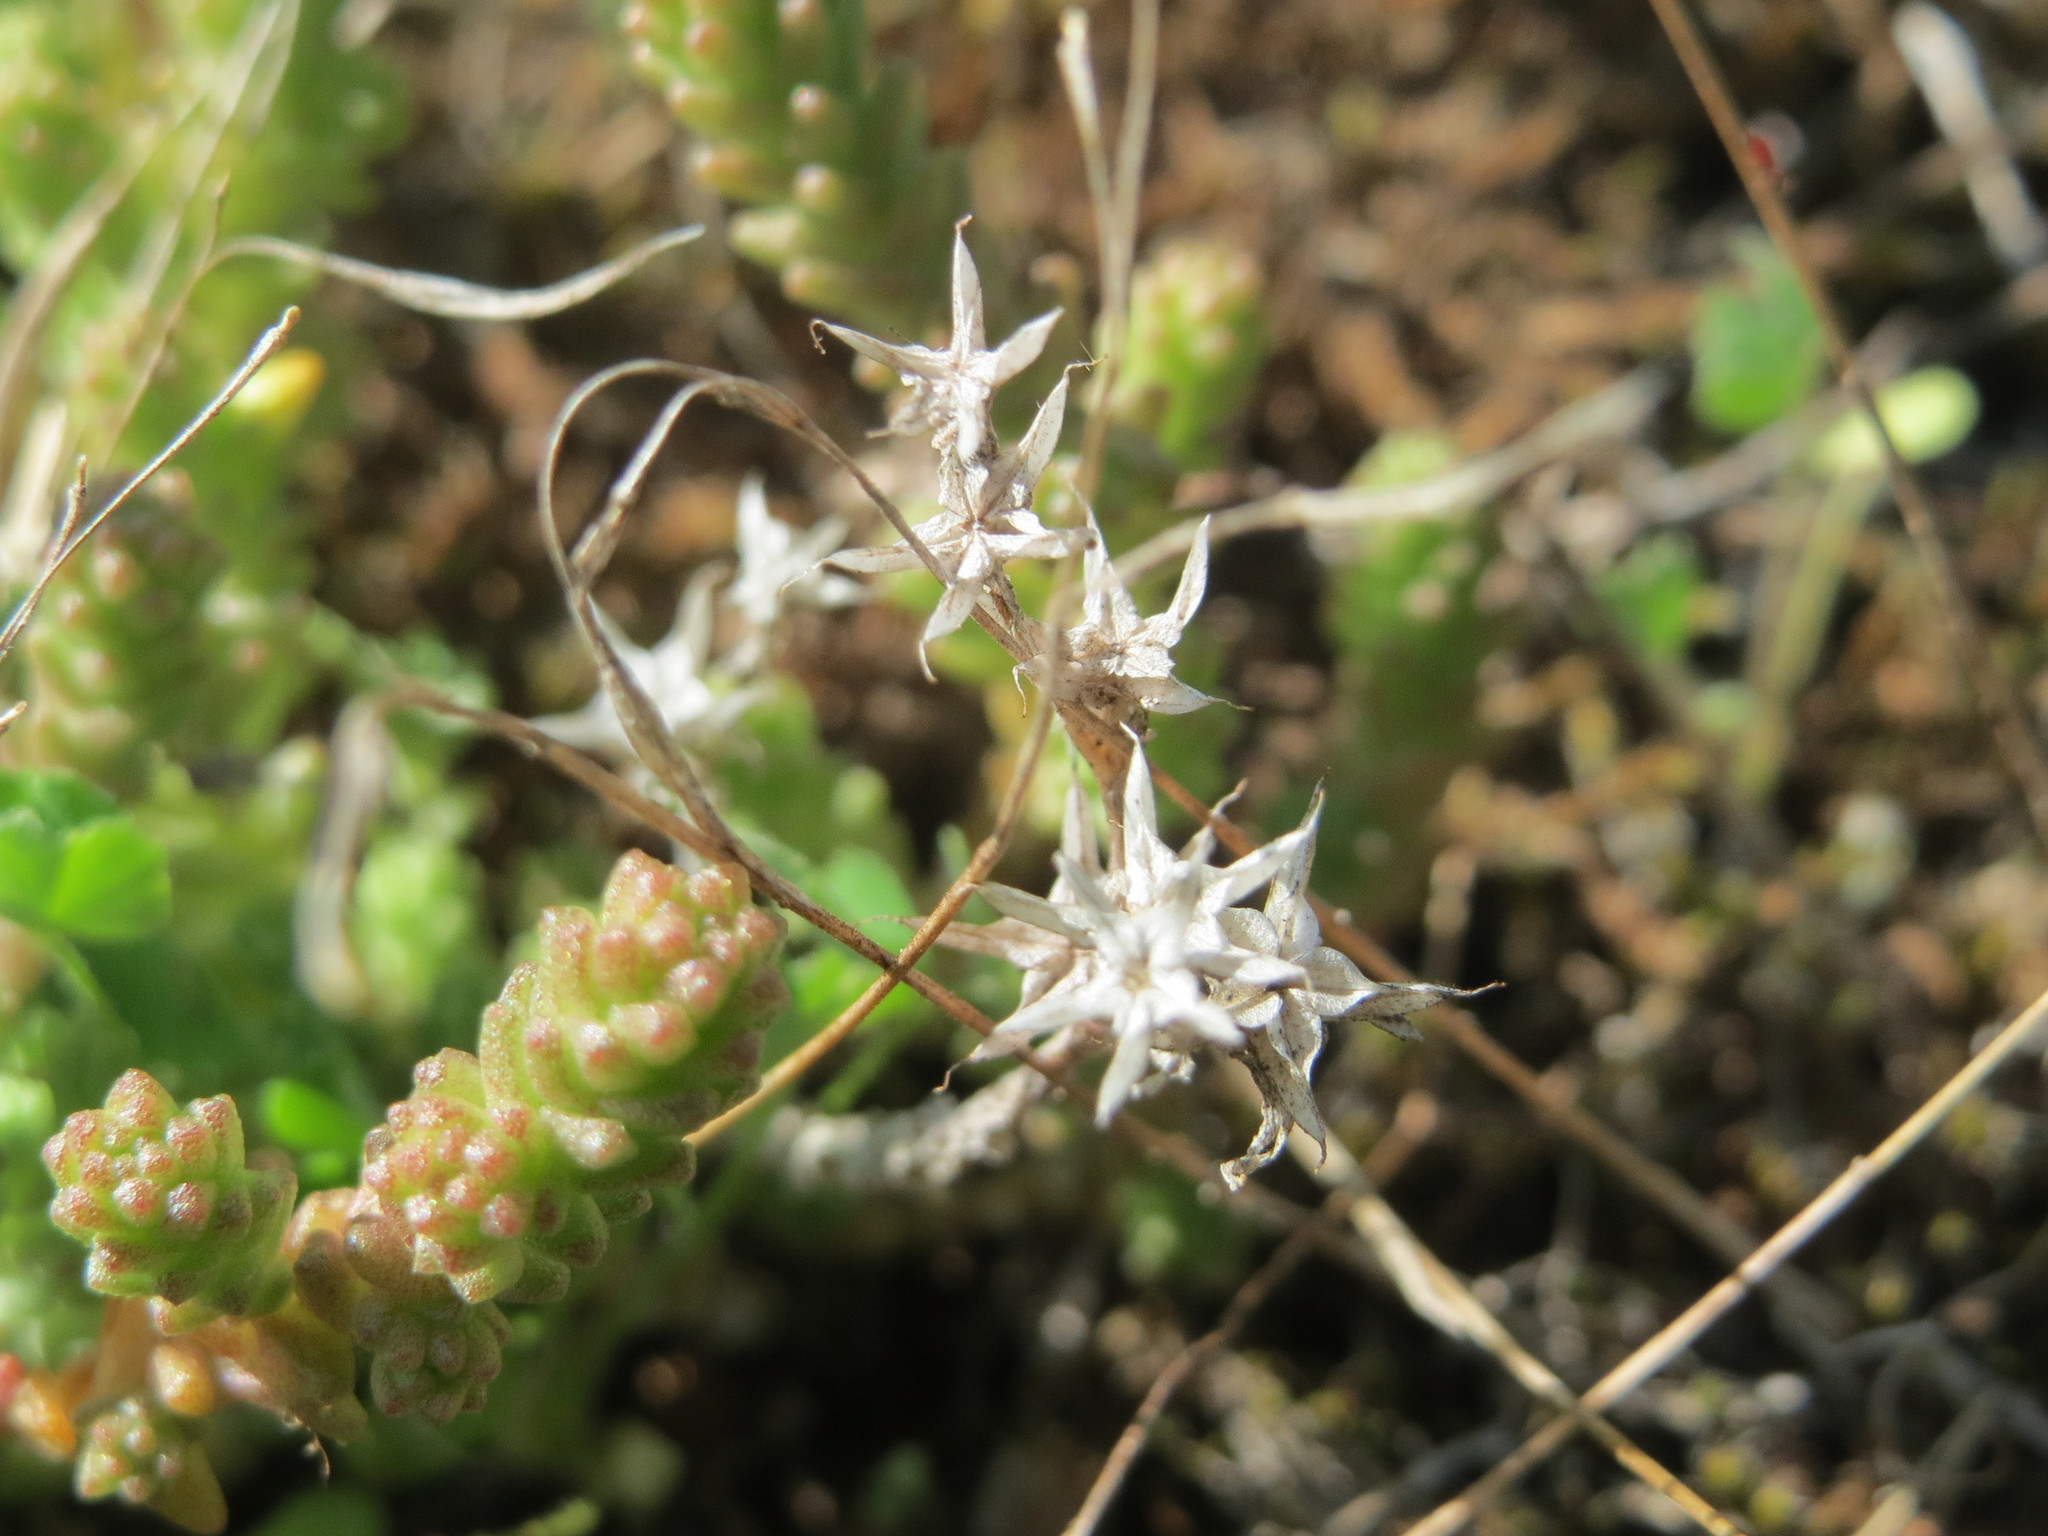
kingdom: Plantae
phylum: Tracheophyta
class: Magnoliopsida
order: Saxifragales
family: Crassulaceae
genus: Sedum
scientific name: Sedum acre
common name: Biting stonecrop
